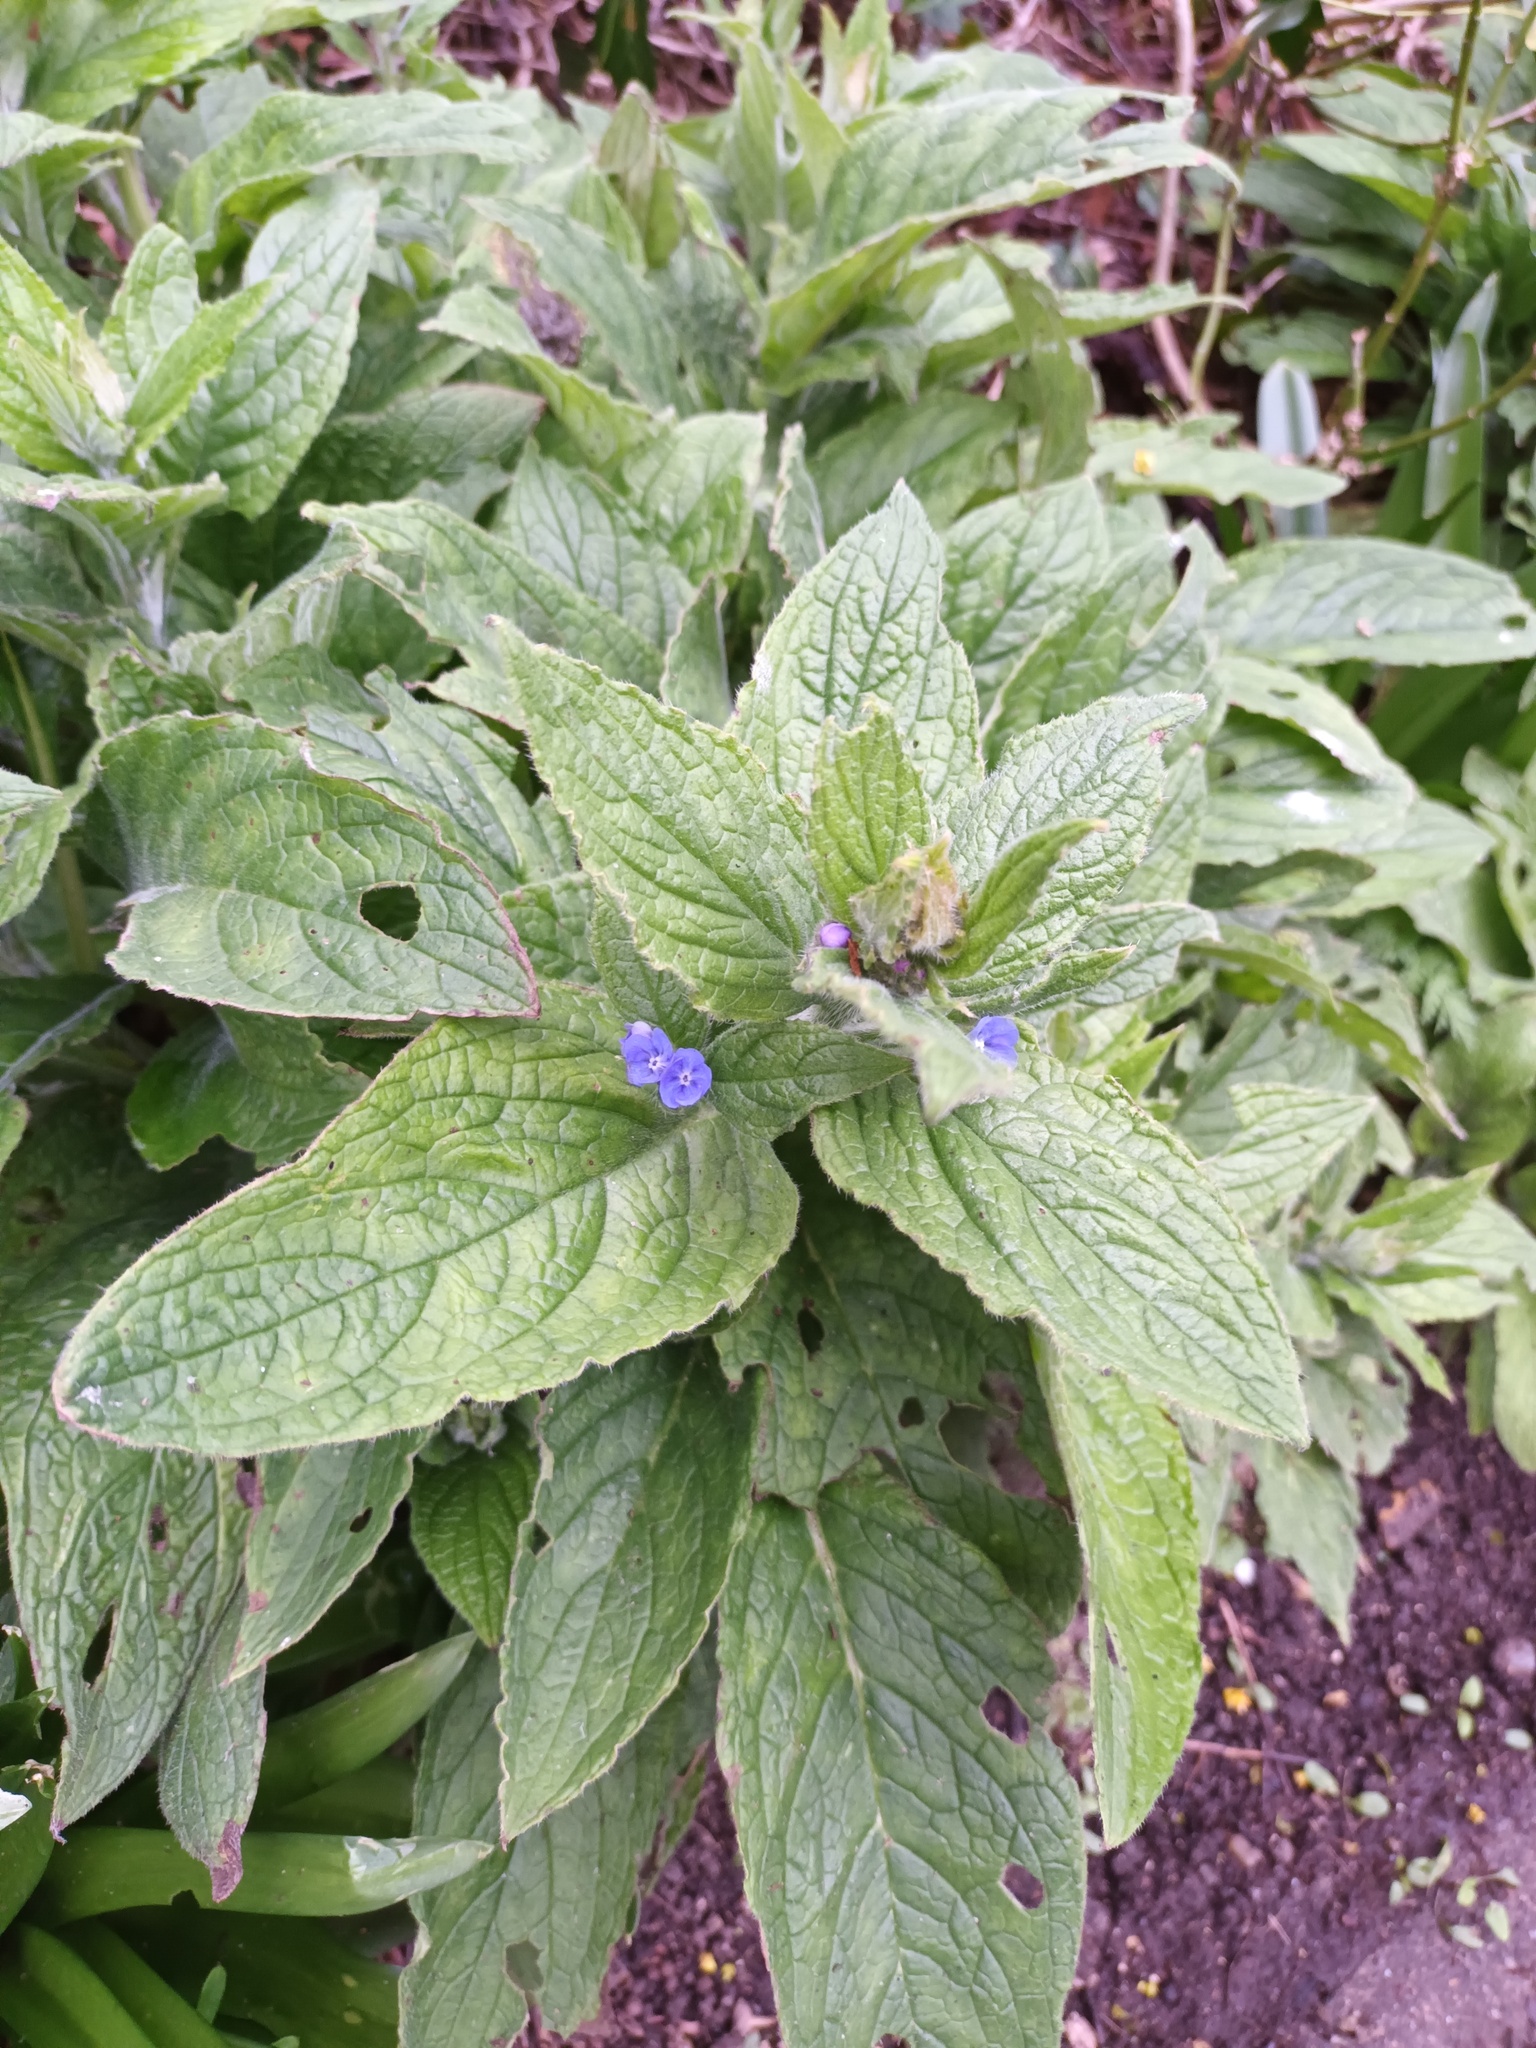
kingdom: Plantae
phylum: Tracheophyta
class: Magnoliopsida
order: Boraginales
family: Boraginaceae
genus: Pentaglottis
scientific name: Pentaglottis sempervirens
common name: Green alkanet
